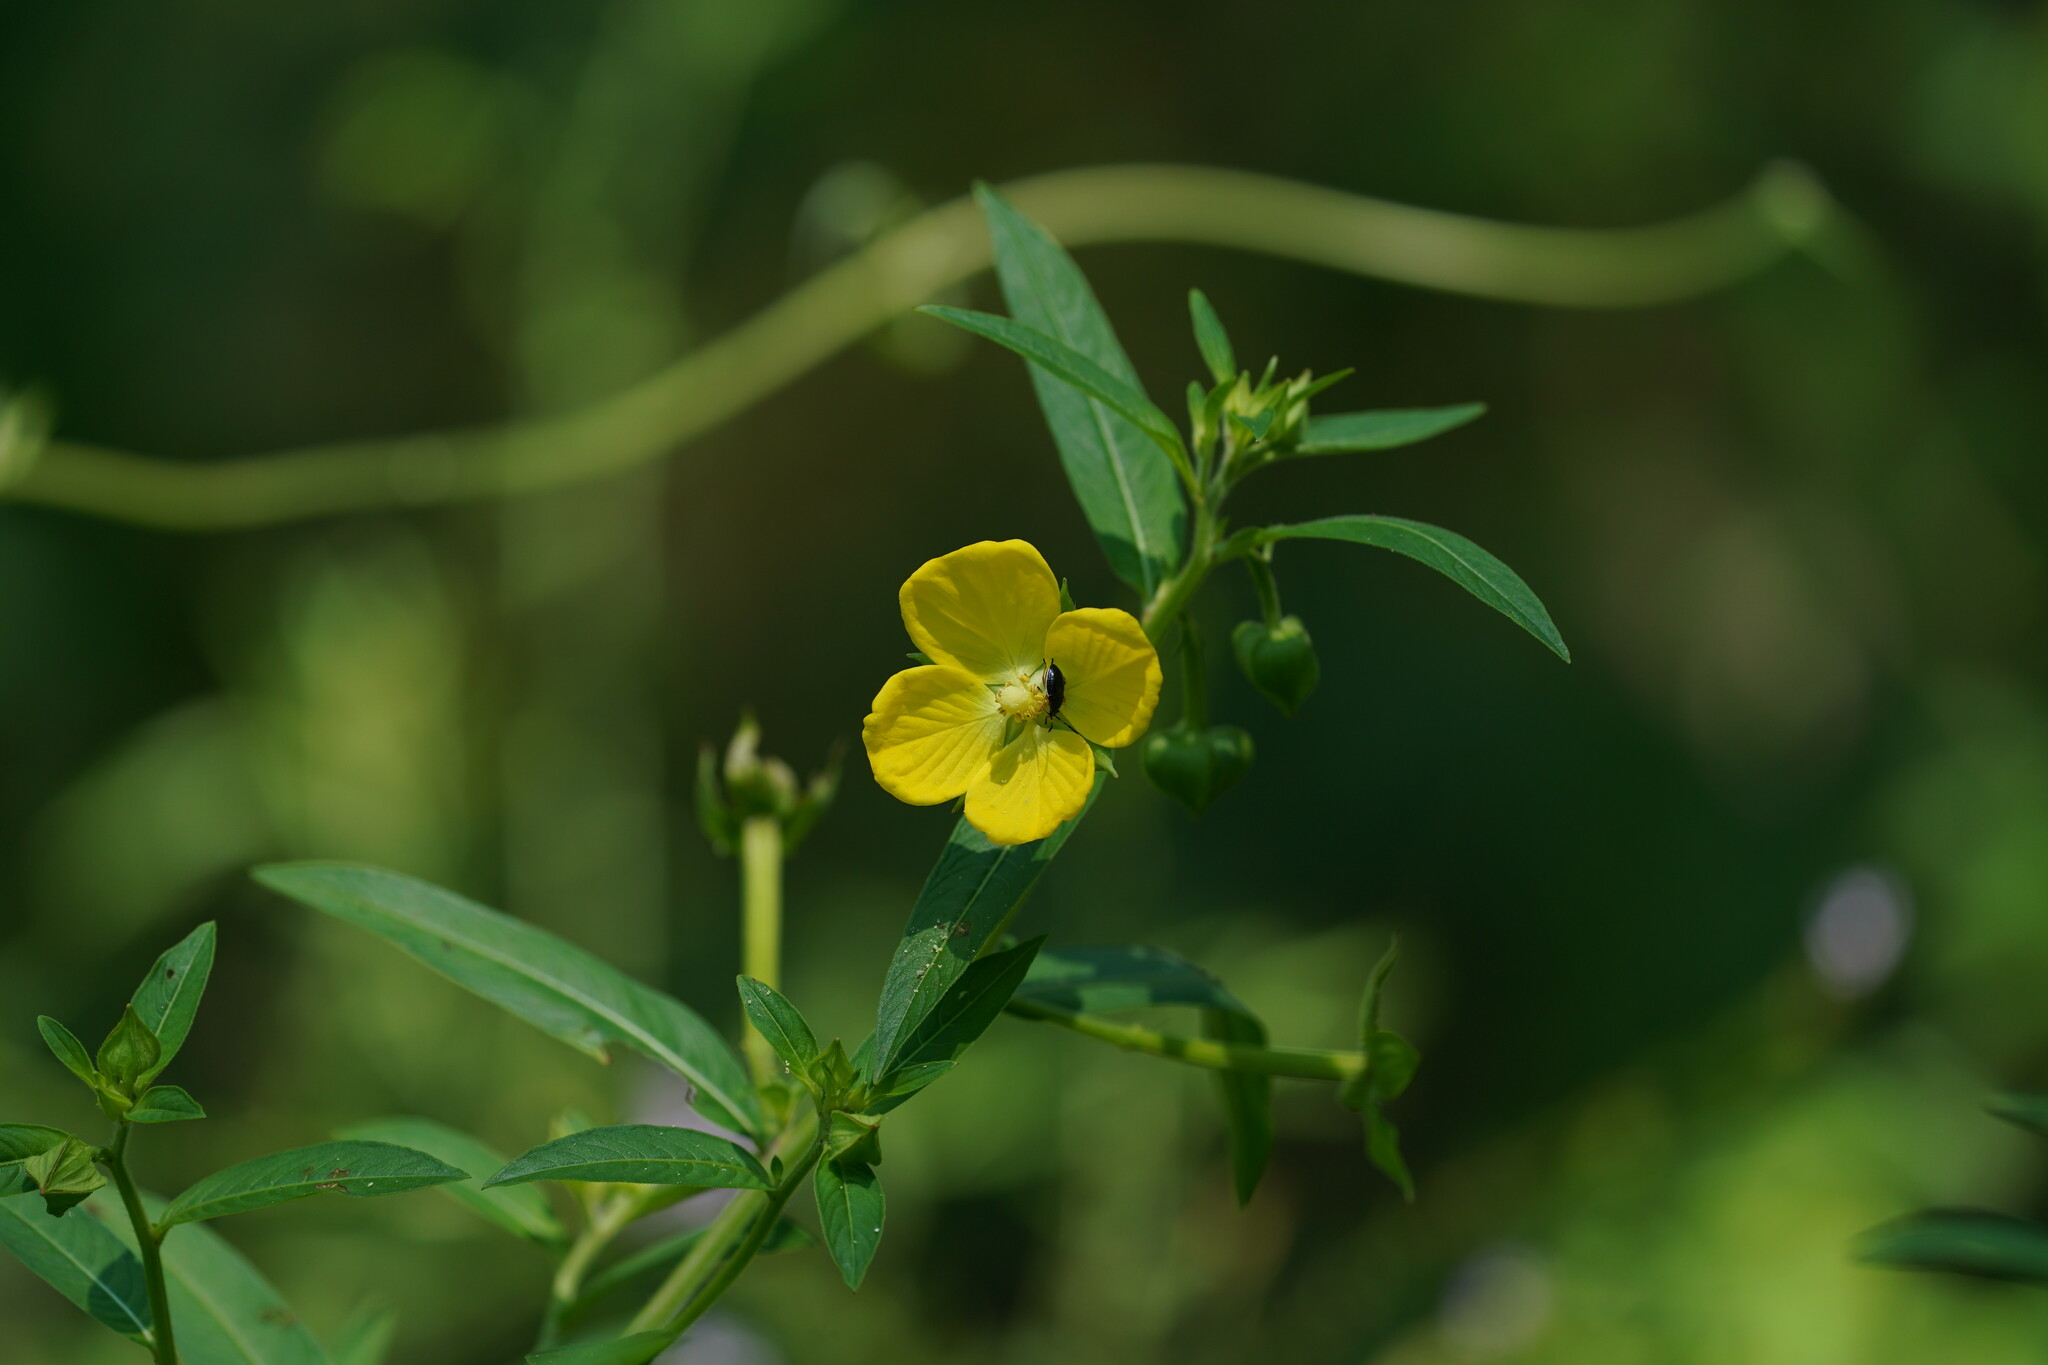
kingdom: Plantae
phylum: Tracheophyta
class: Magnoliopsida
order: Myrtales
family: Onagraceae
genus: Ludwigia
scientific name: Ludwigia octovalvis
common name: Water-primrose
